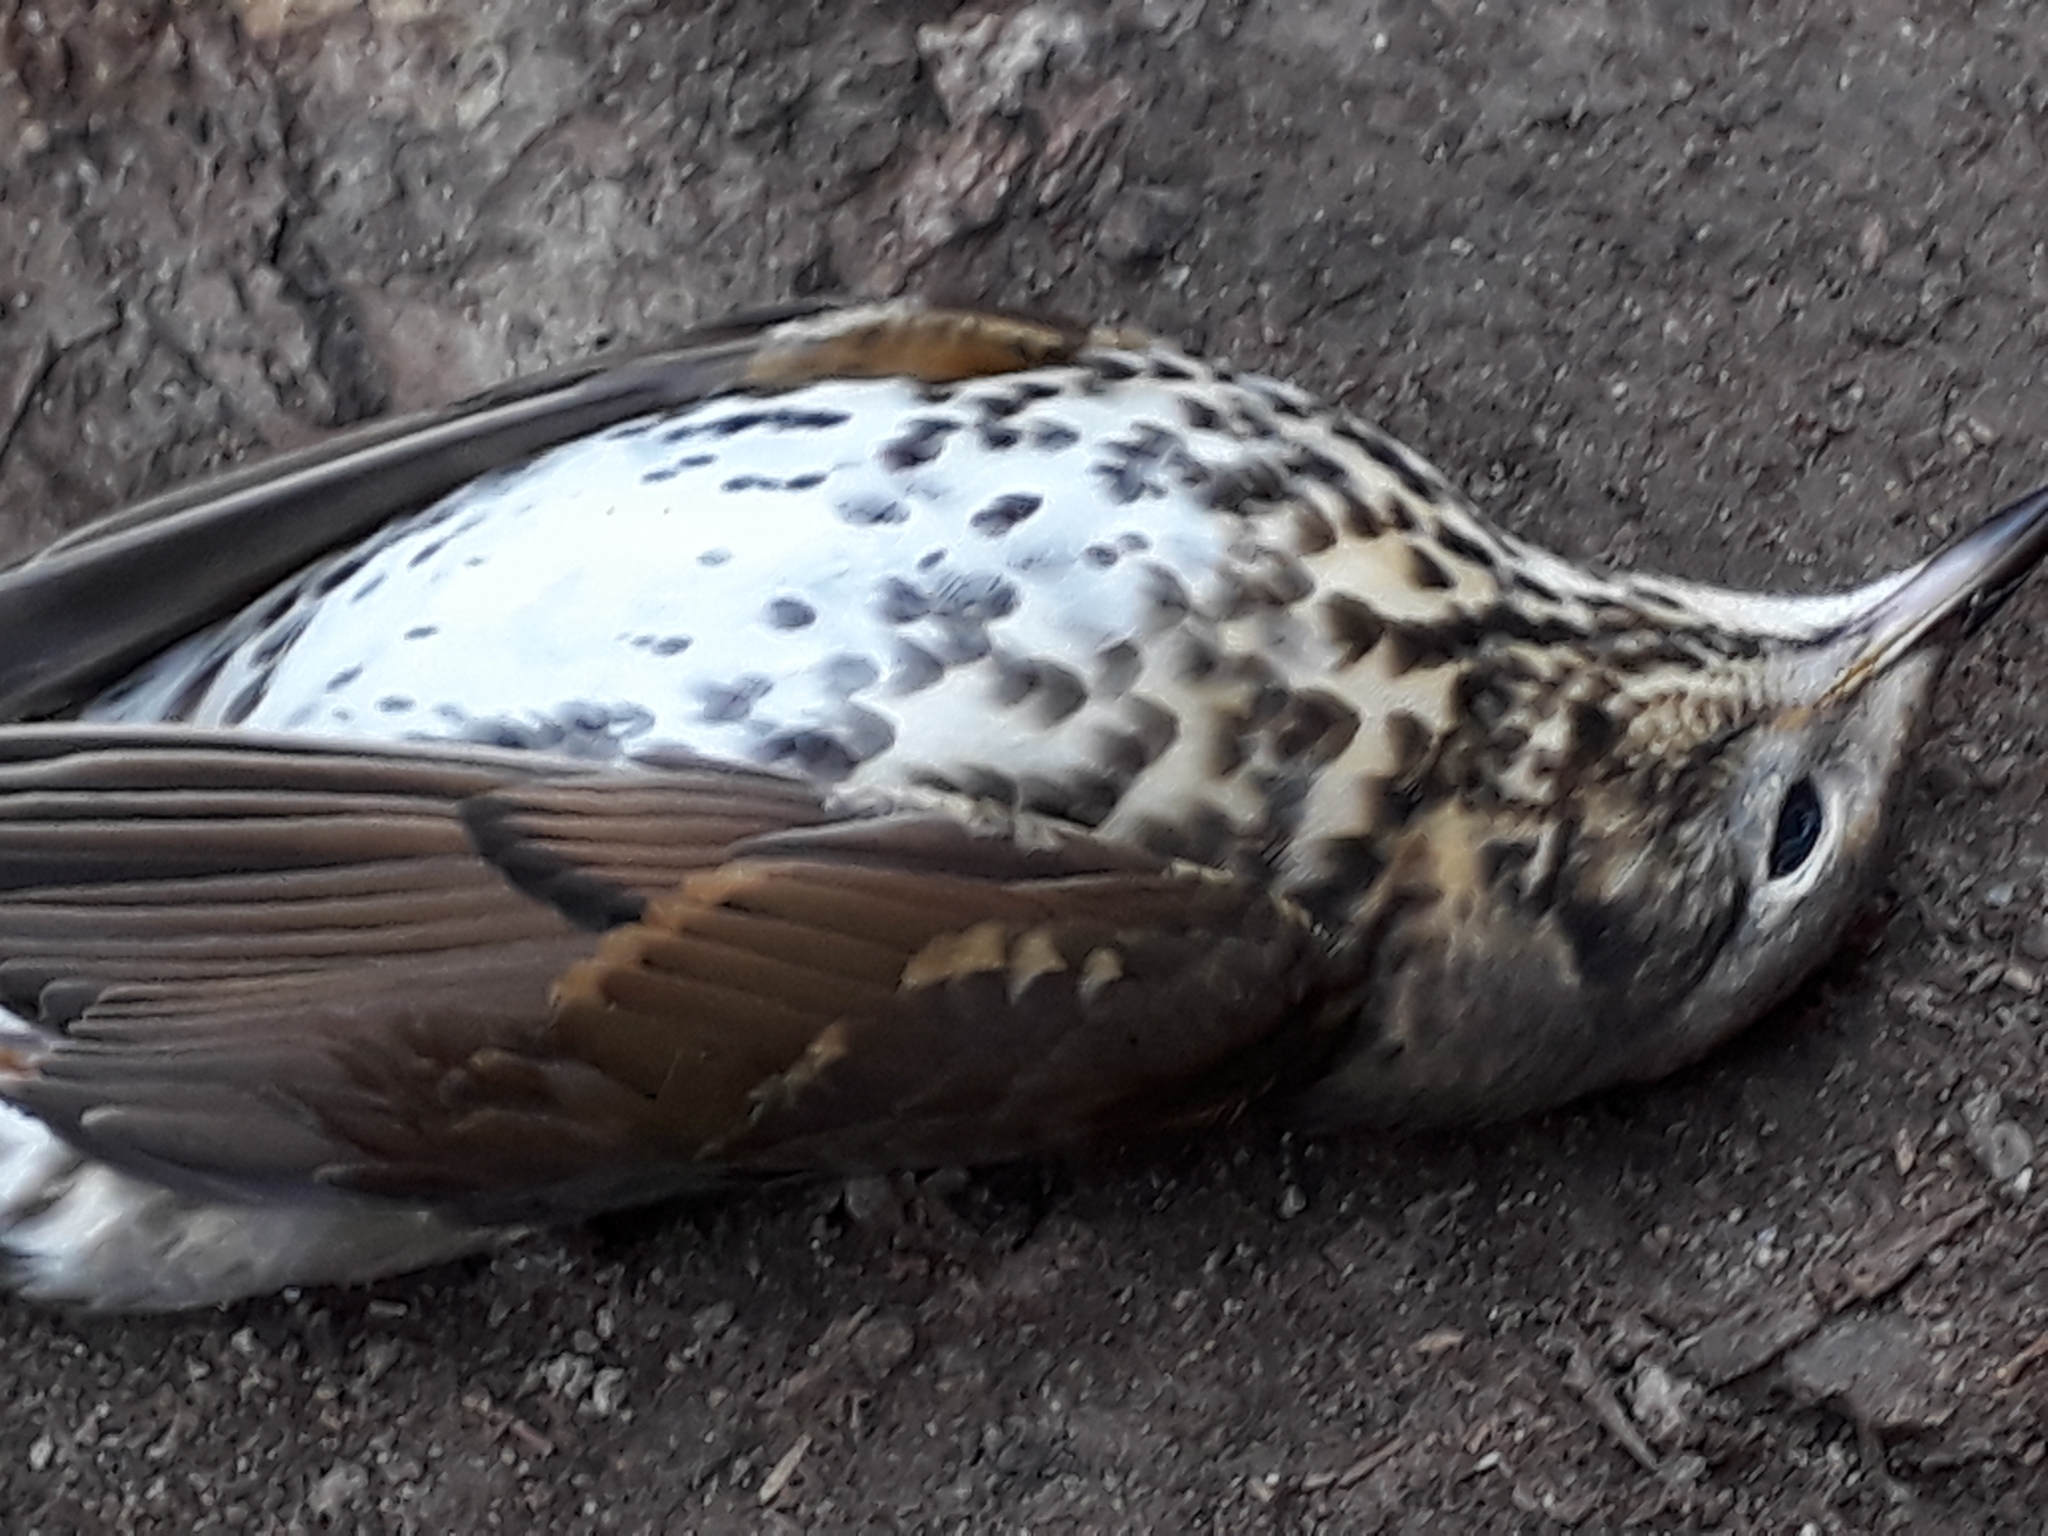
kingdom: Animalia
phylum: Chordata
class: Aves
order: Passeriformes
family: Turdidae
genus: Turdus
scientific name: Turdus philomelos
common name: Song thrush
